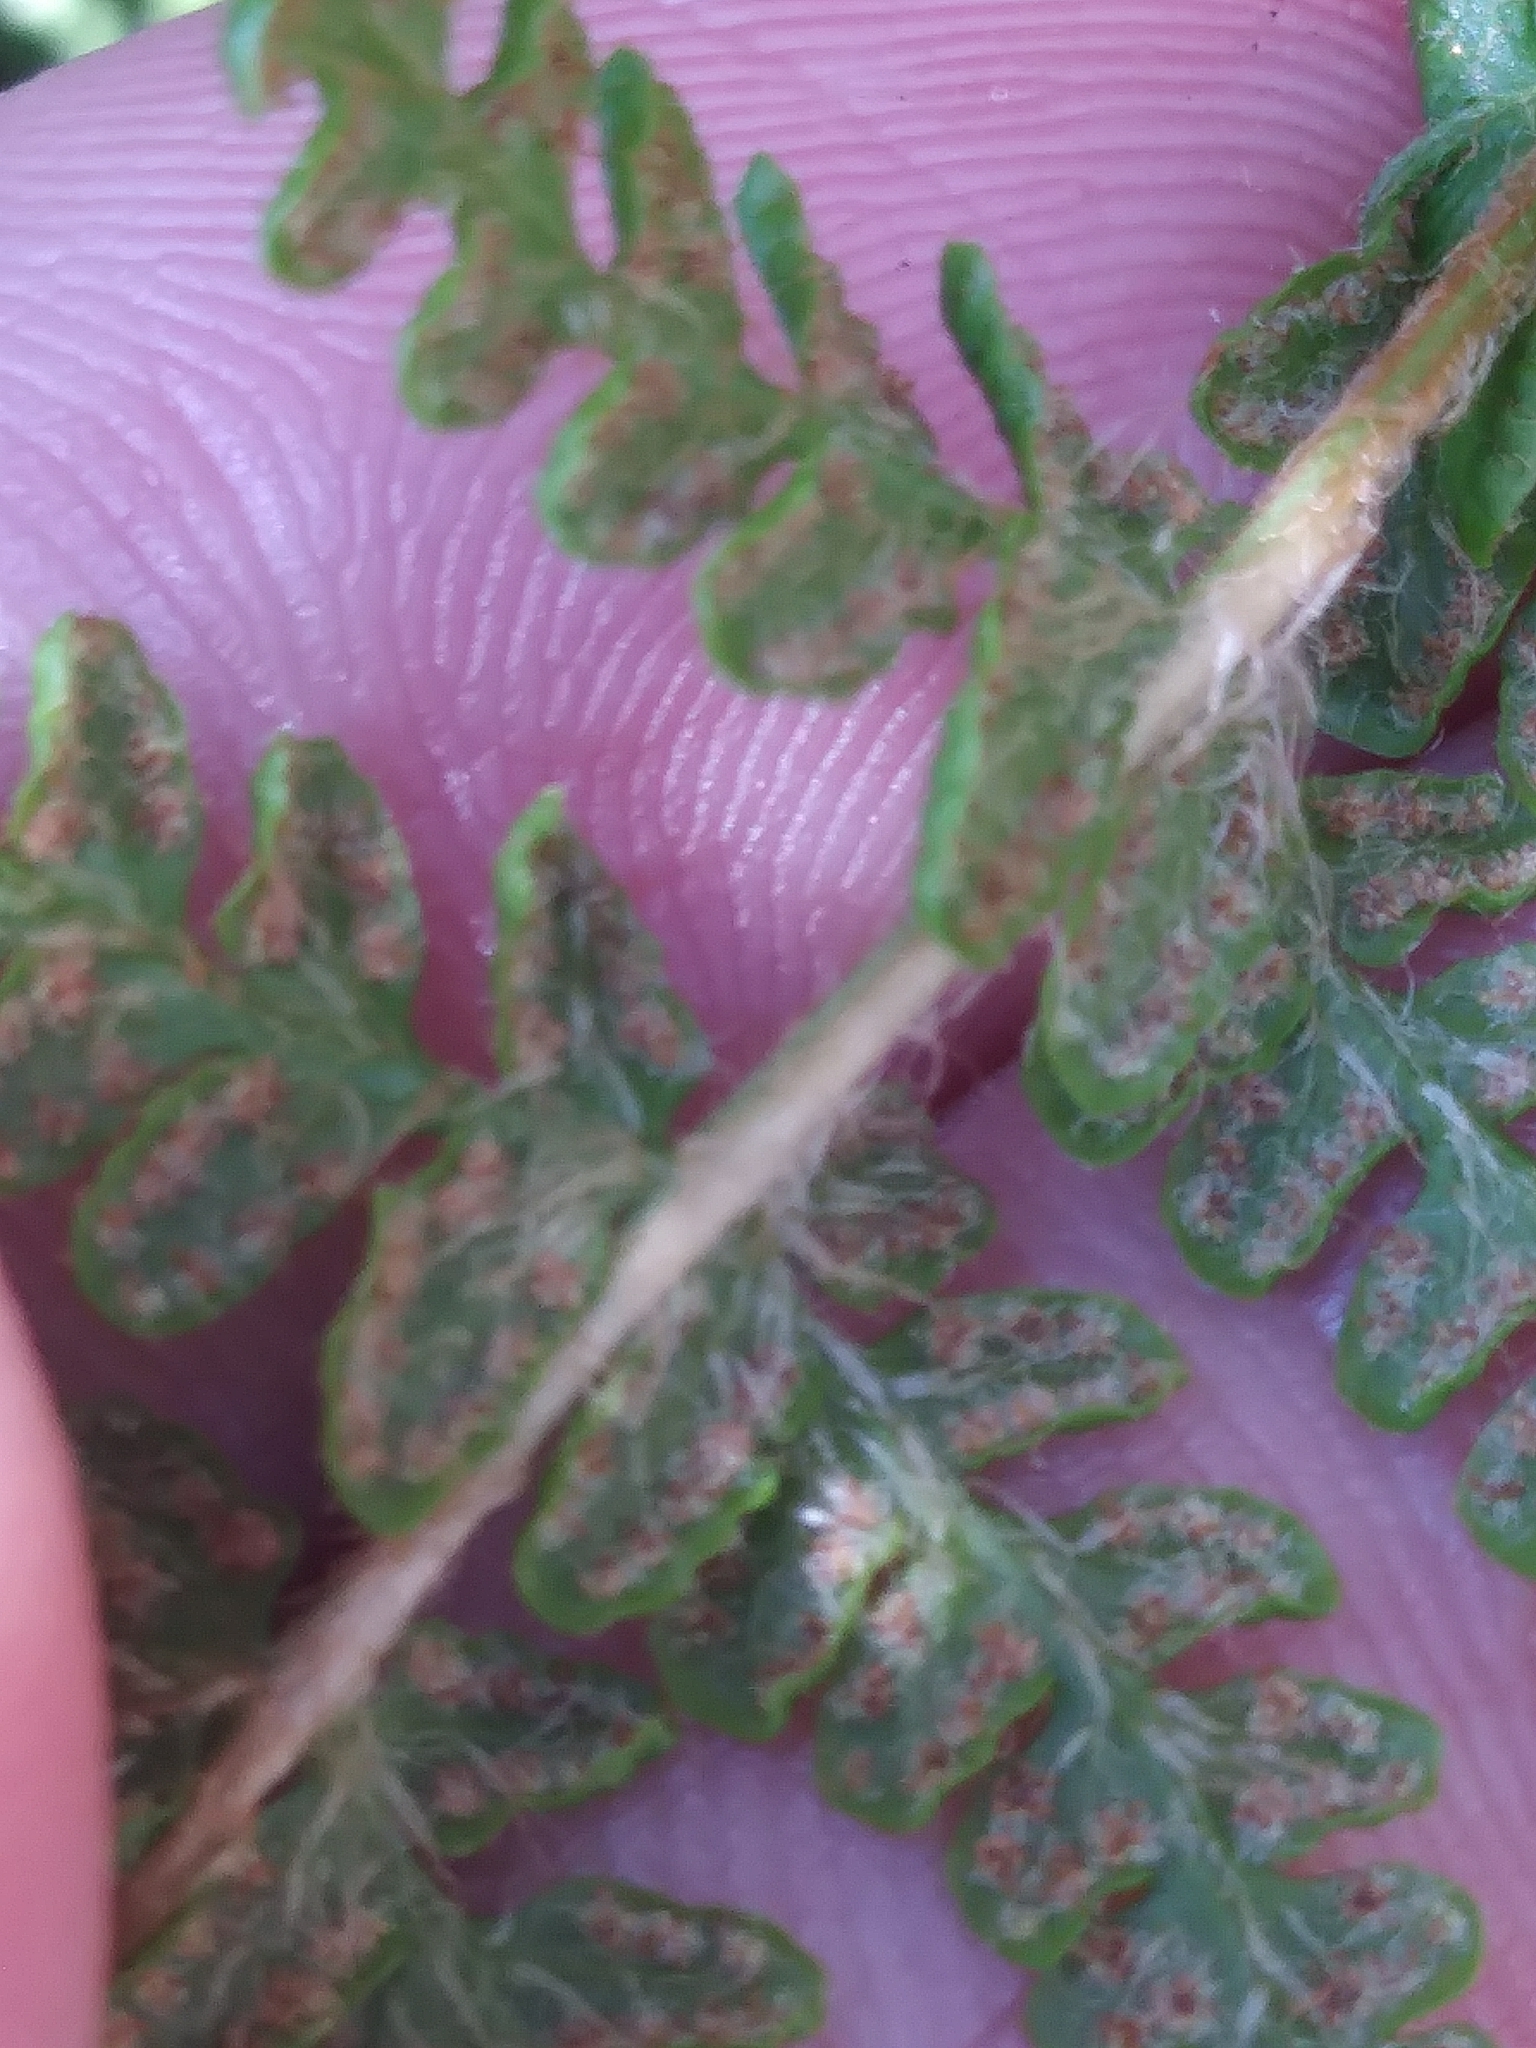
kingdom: Plantae
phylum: Tracheophyta
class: Polypodiopsida
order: Polypodiales
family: Woodsiaceae
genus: Woodsia
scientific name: Woodsia ilvensis
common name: Fragrant woodsia
